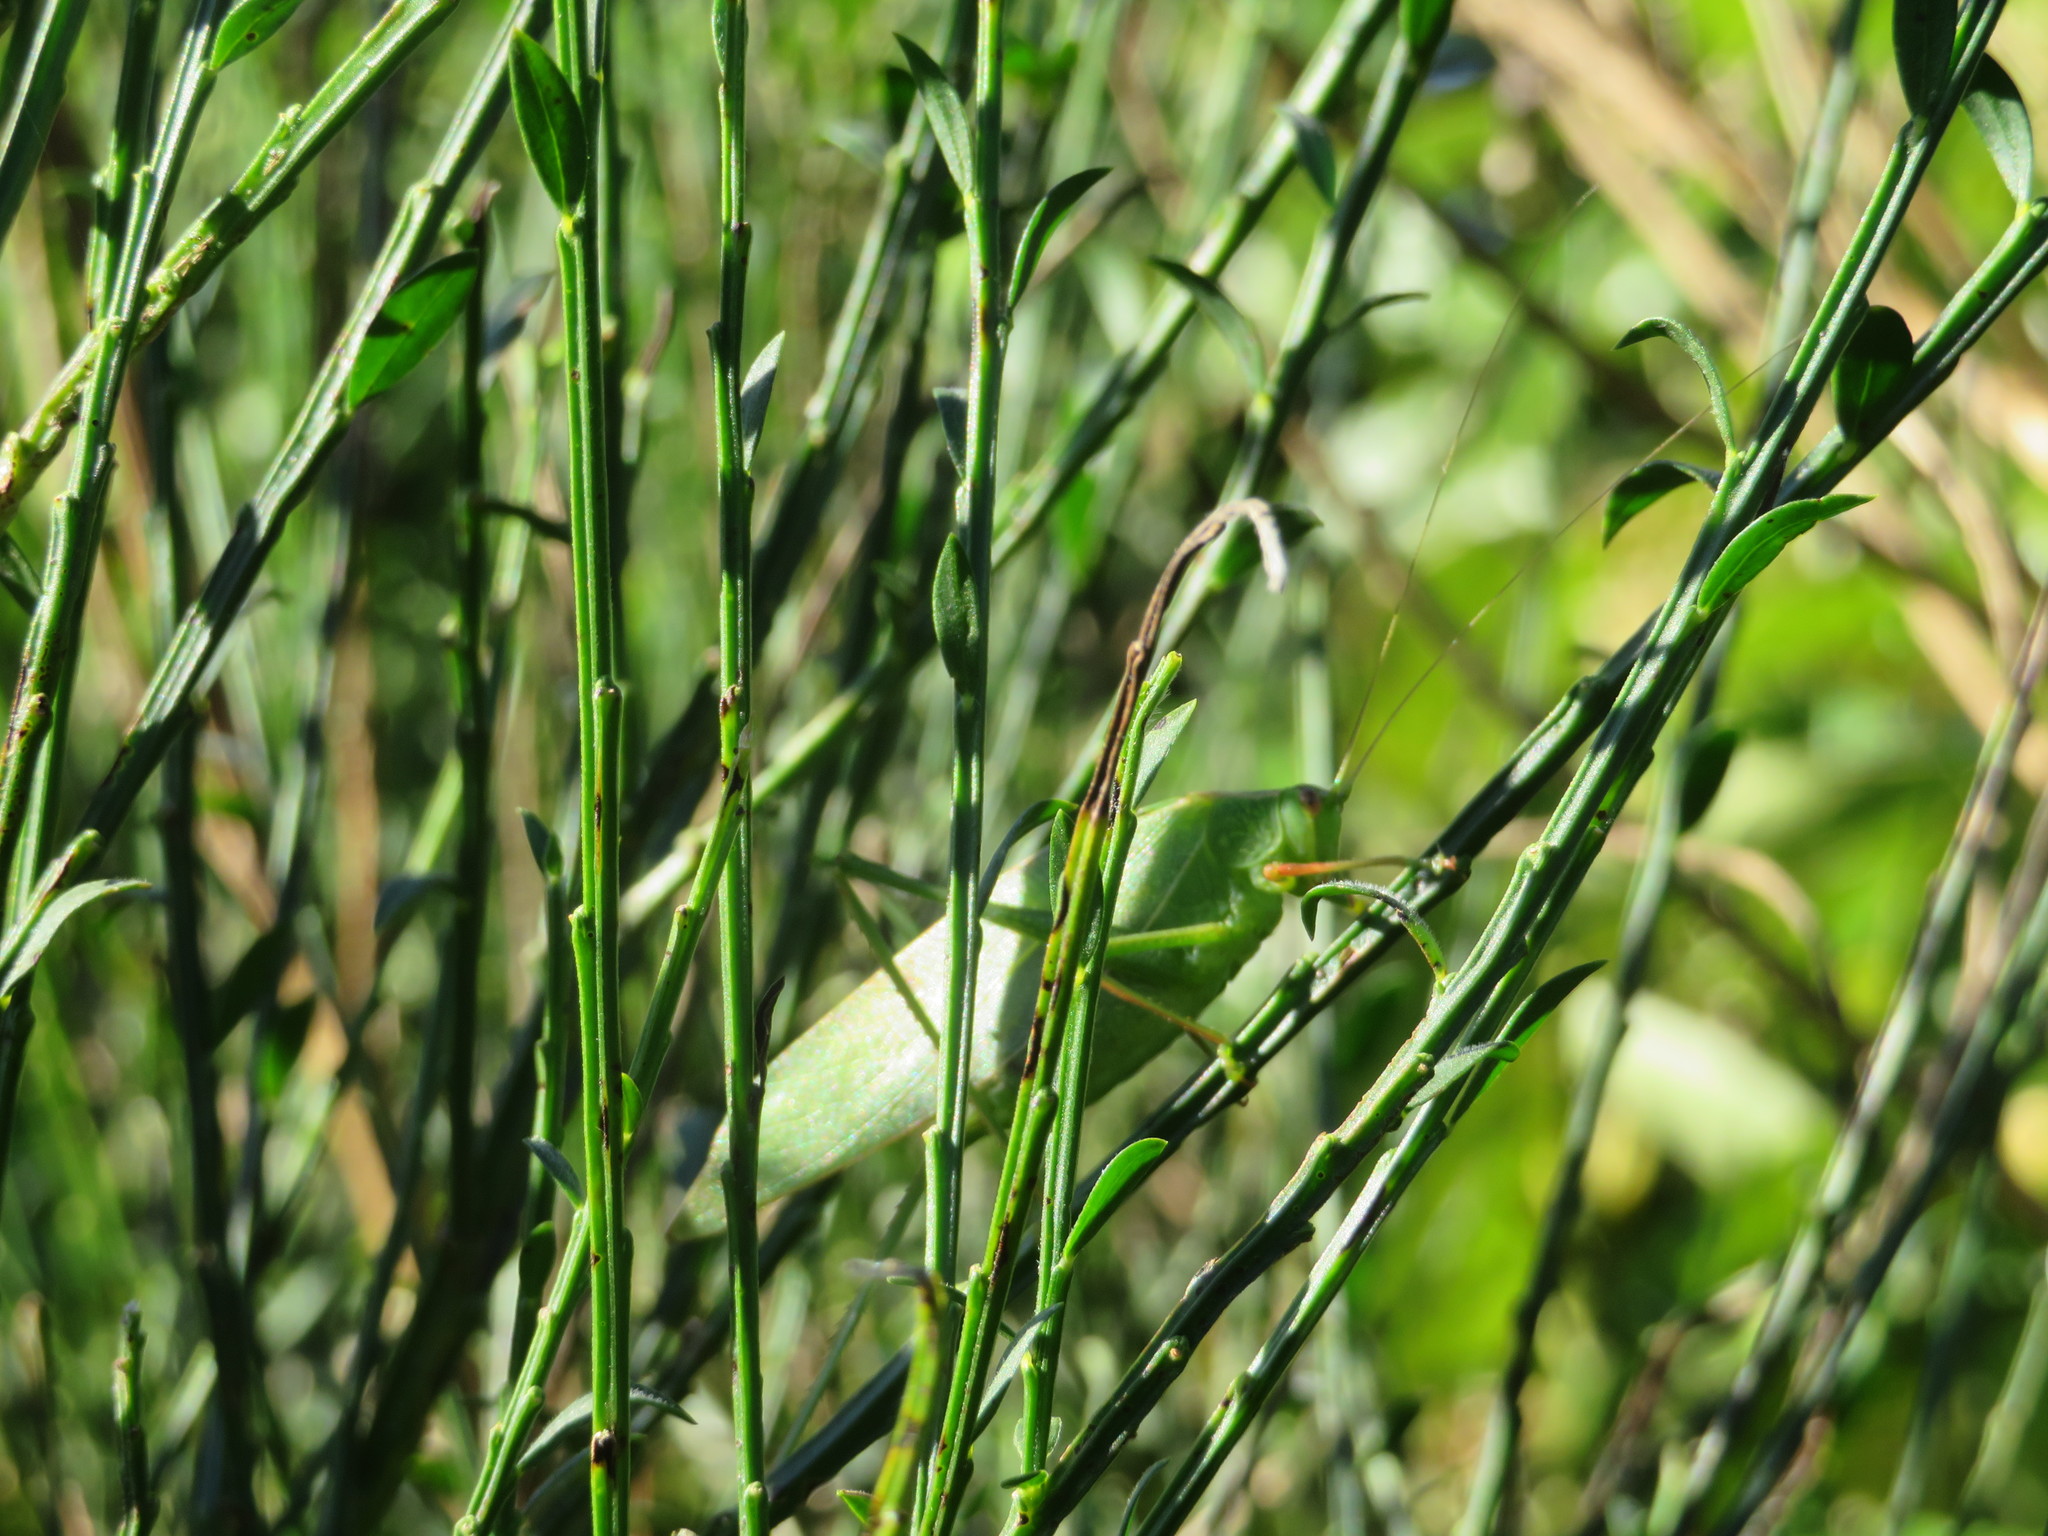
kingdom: Animalia
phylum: Arthropoda
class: Insecta
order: Orthoptera
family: Tettigoniidae
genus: Caedicia
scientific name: Caedicia simplex
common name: Common garden katydid
